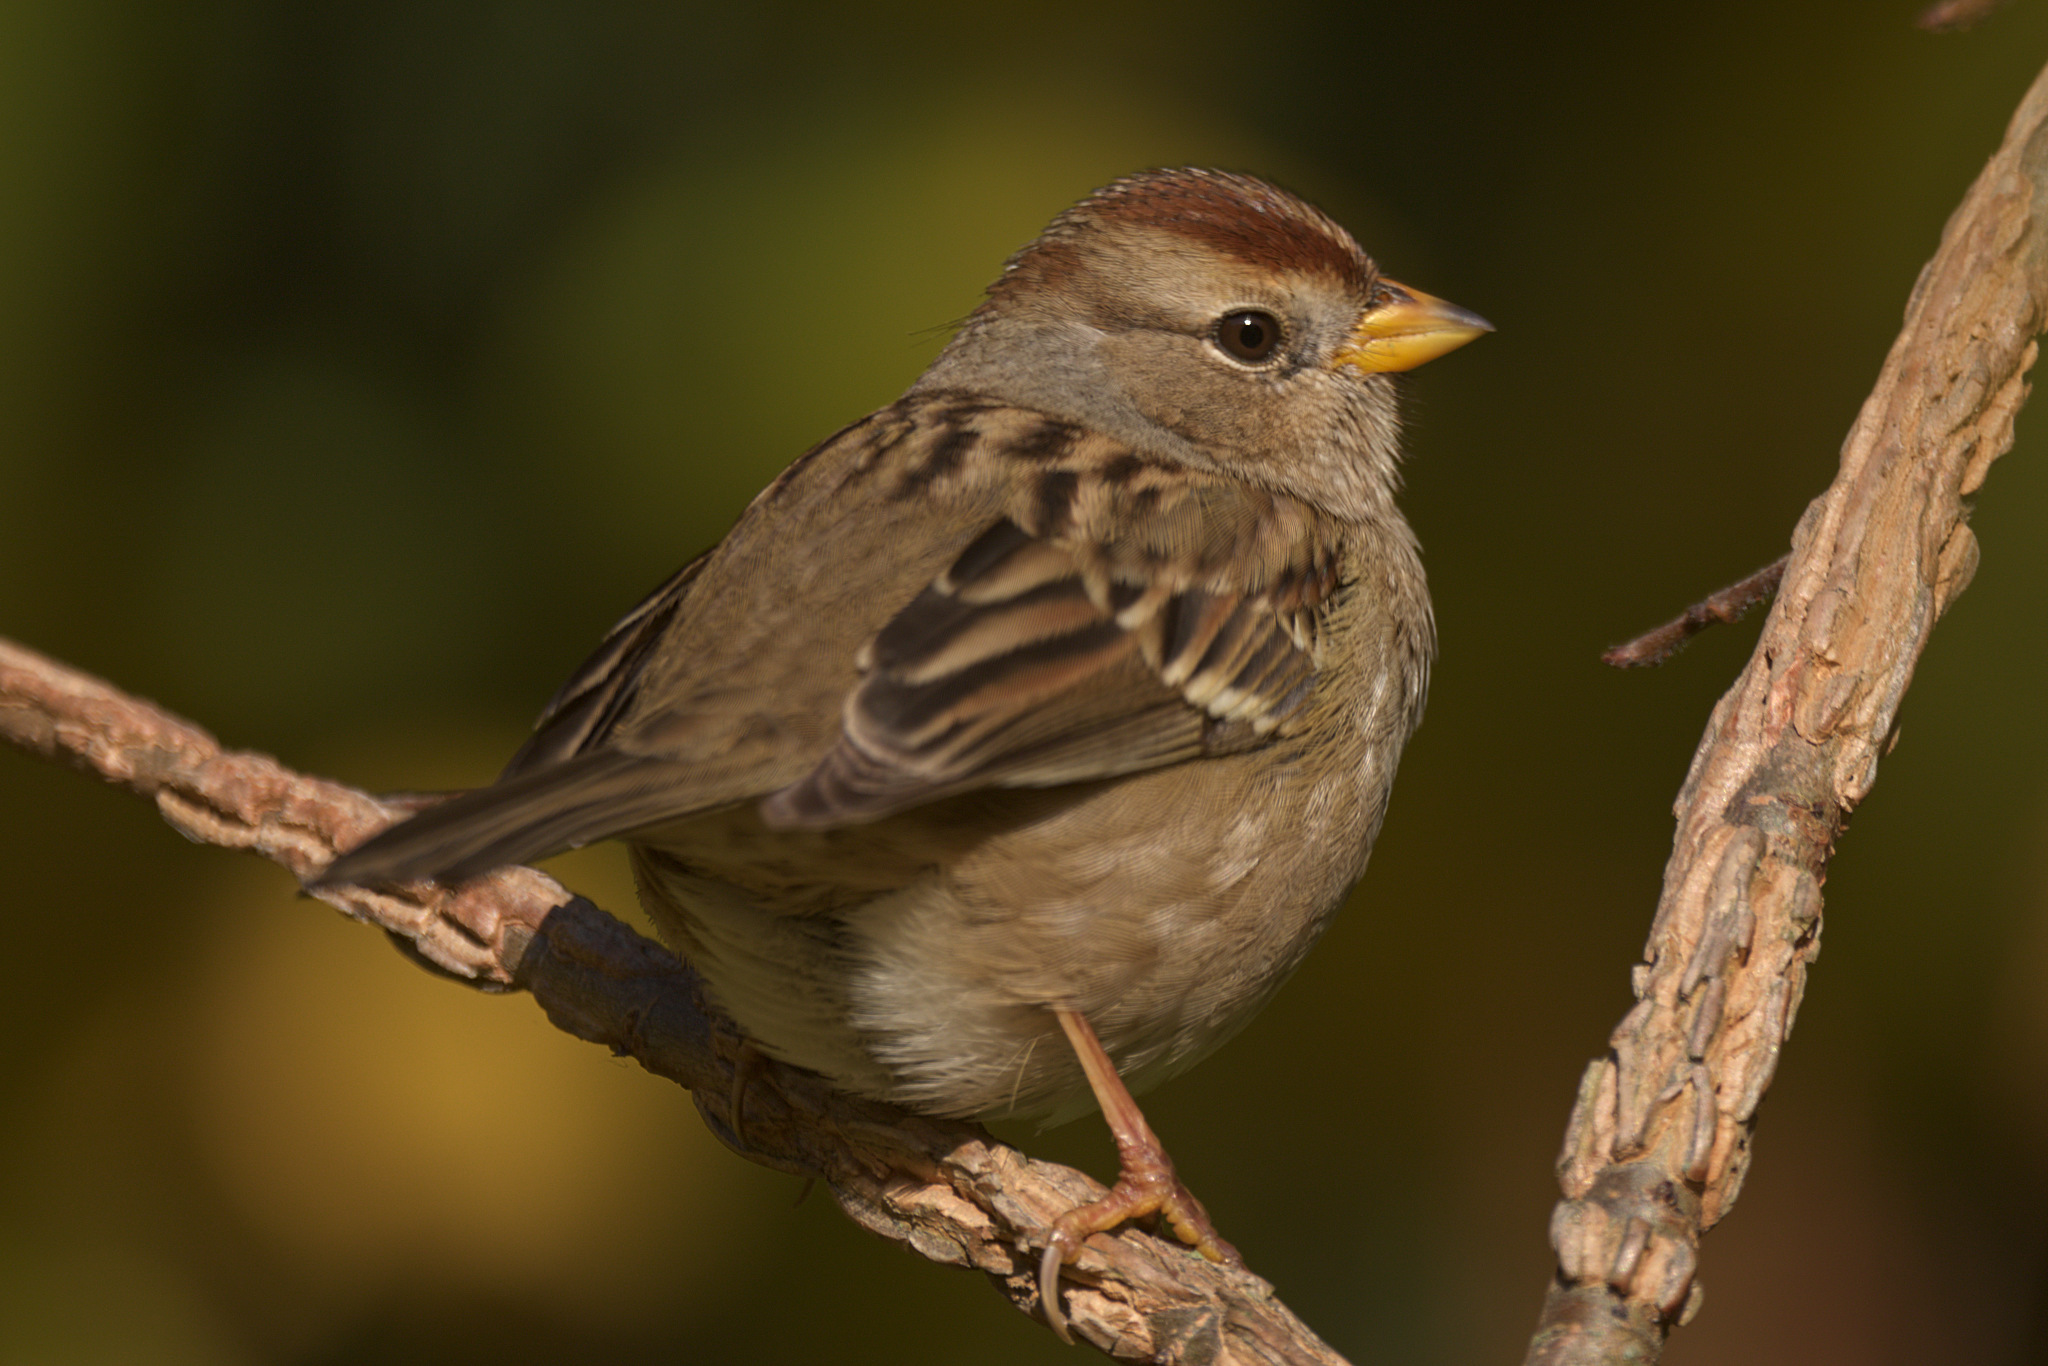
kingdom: Animalia
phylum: Chordata
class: Aves
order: Passeriformes
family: Passerellidae
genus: Zonotrichia
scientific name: Zonotrichia leucophrys
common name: White-crowned sparrow
